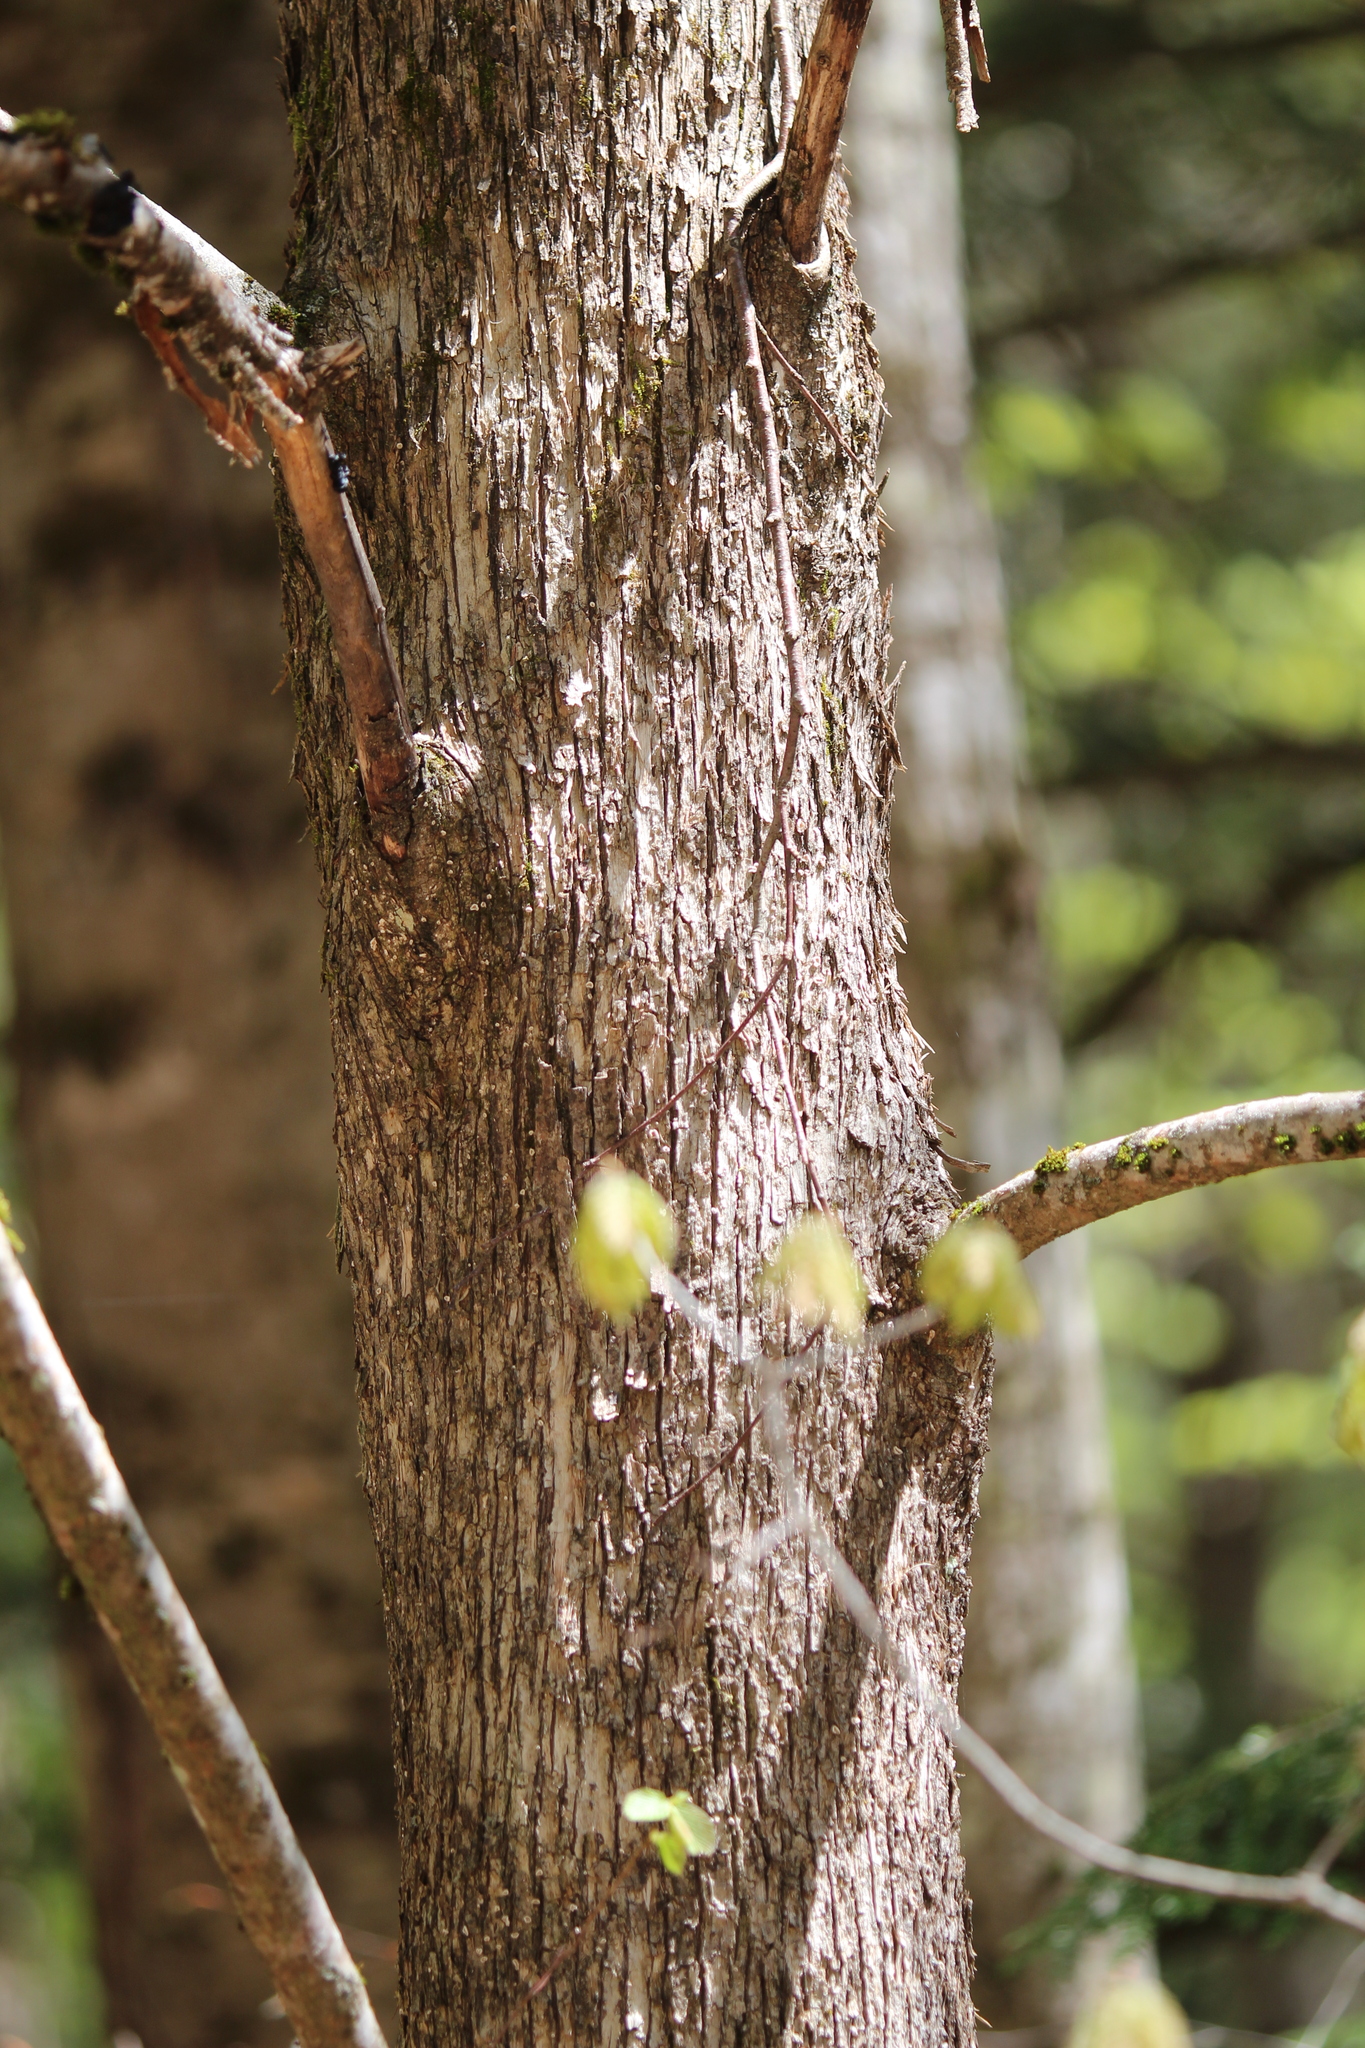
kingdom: Plantae
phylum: Tracheophyta
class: Magnoliopsida
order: Fagales
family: Betulaceae
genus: Ostrya
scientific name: Ostrya virginiana
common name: Ironwood
